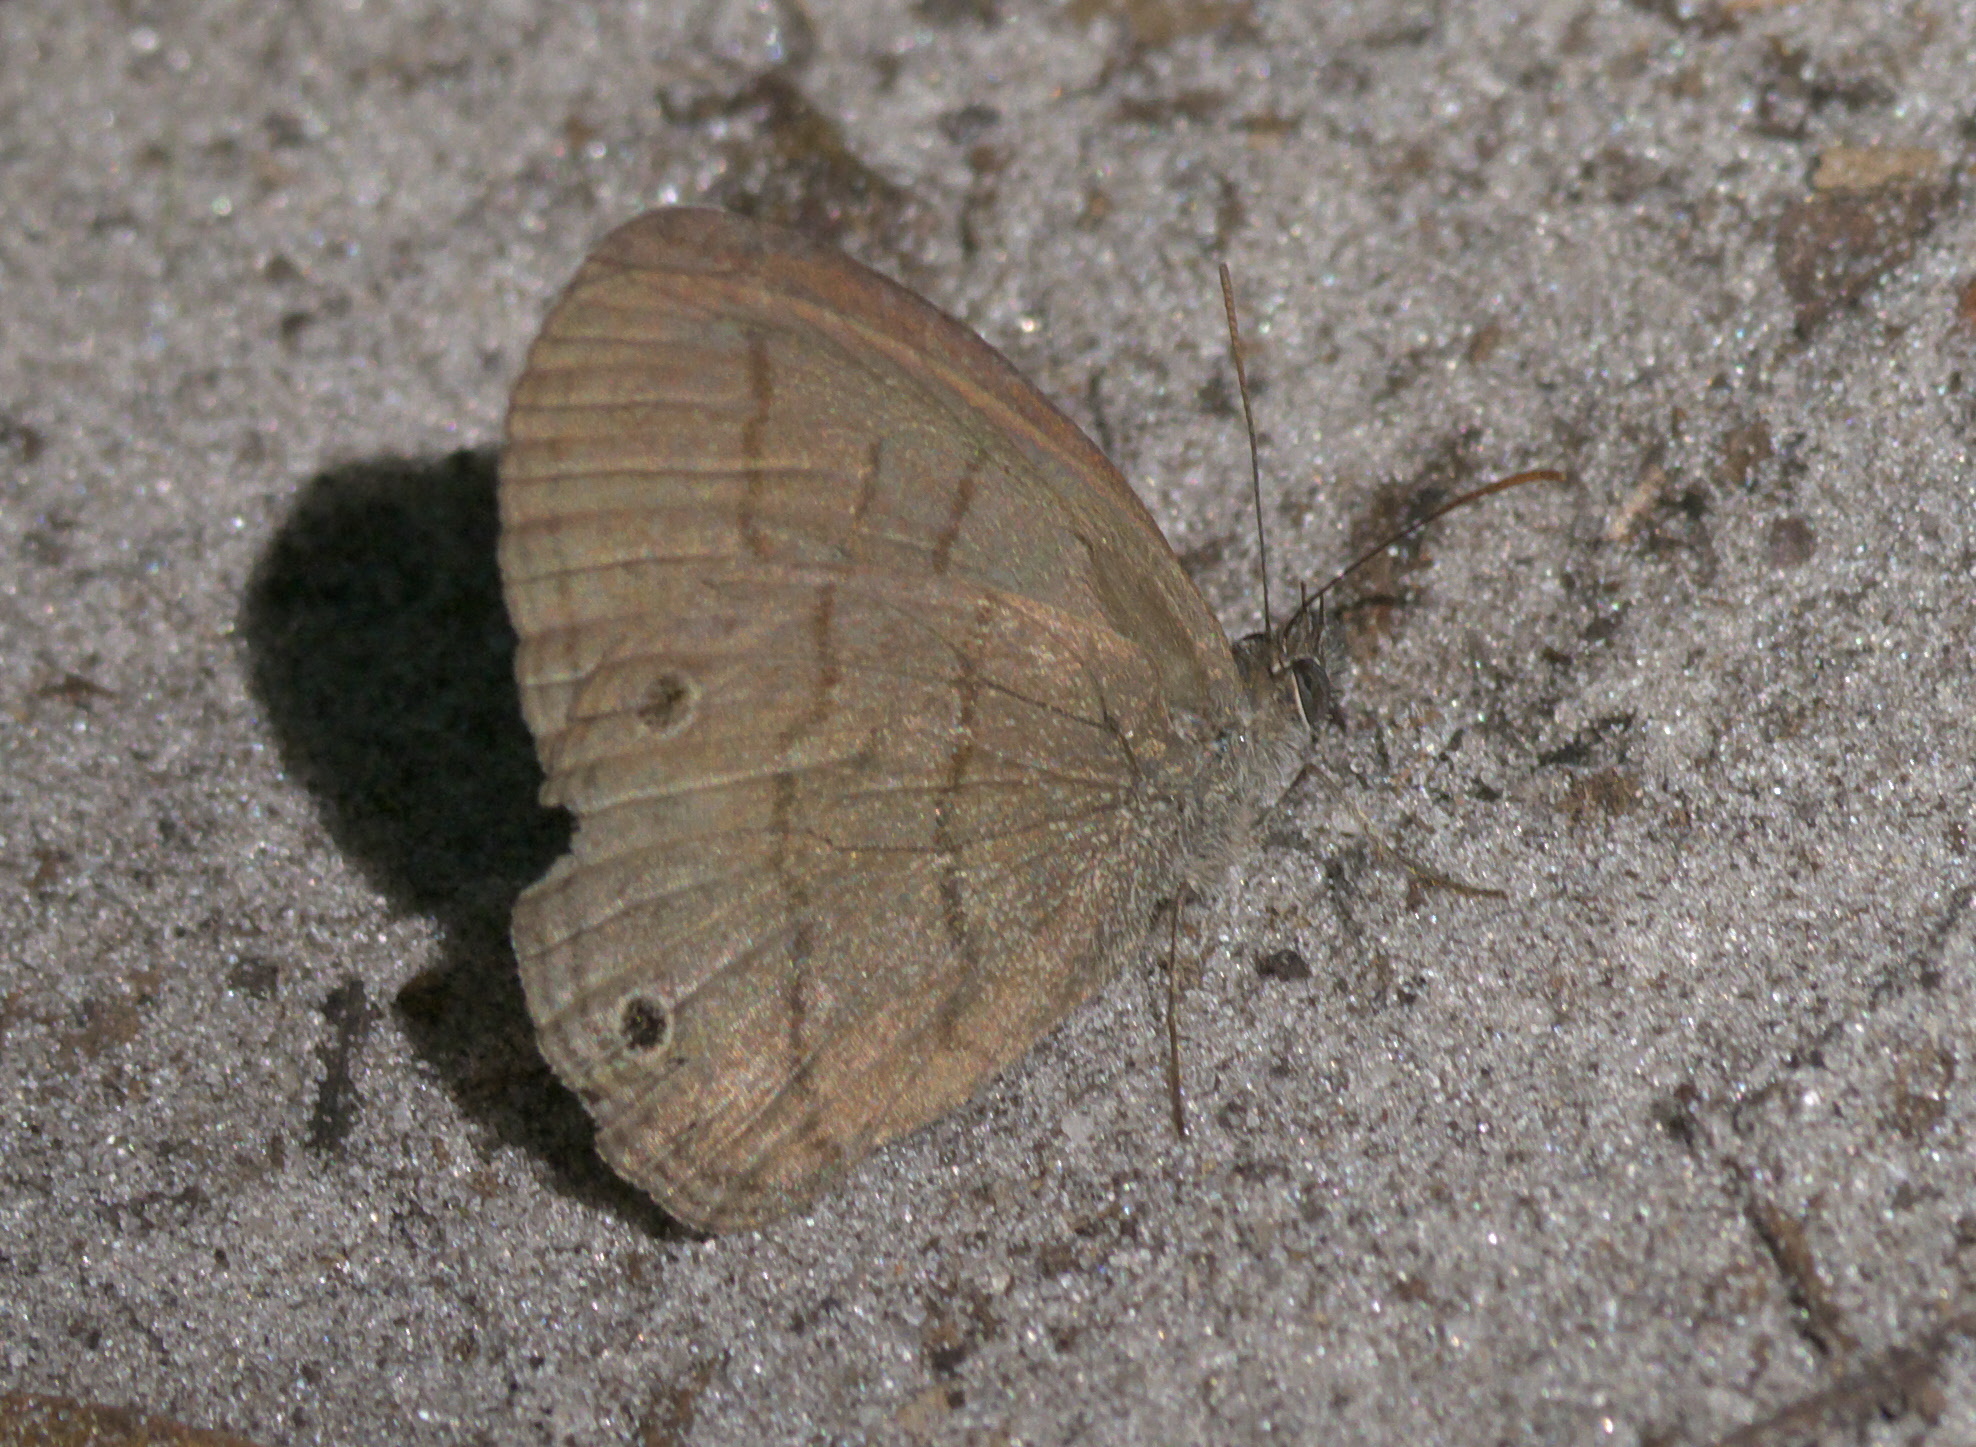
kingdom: Animalia
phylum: Arthropoda
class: Insecta
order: Lepidoptera
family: Nymphalidae
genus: Hermeuptychia
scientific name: Hermeuptychia hermes
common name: Hermes satyr
